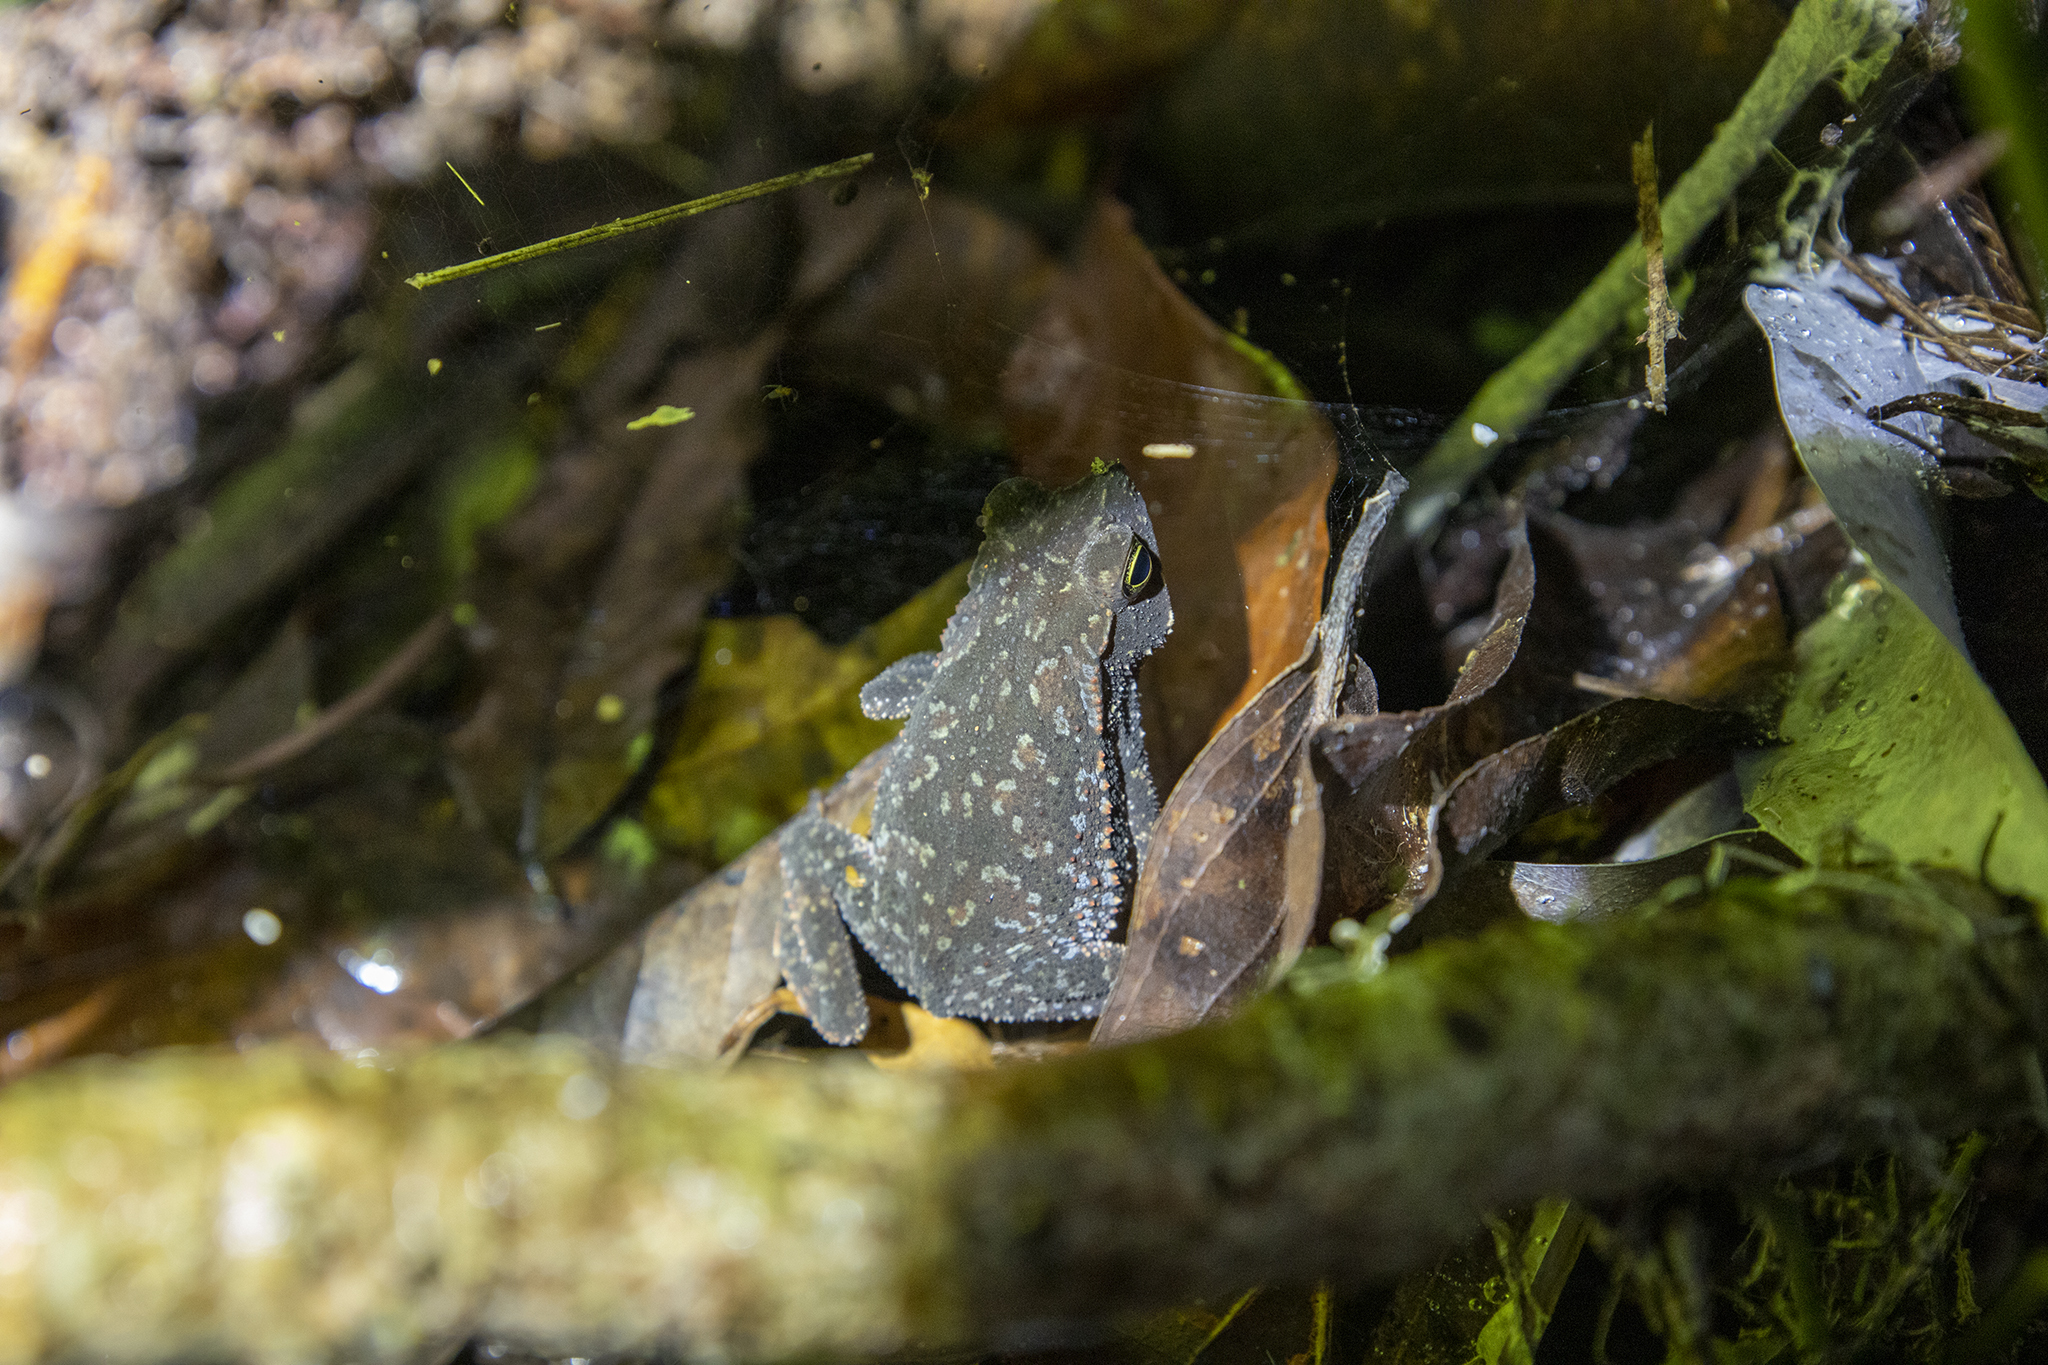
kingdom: Animalia
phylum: Chordata
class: Amphibia
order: Anura
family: Bufonidae
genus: Rhinella
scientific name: Rhinella alata
